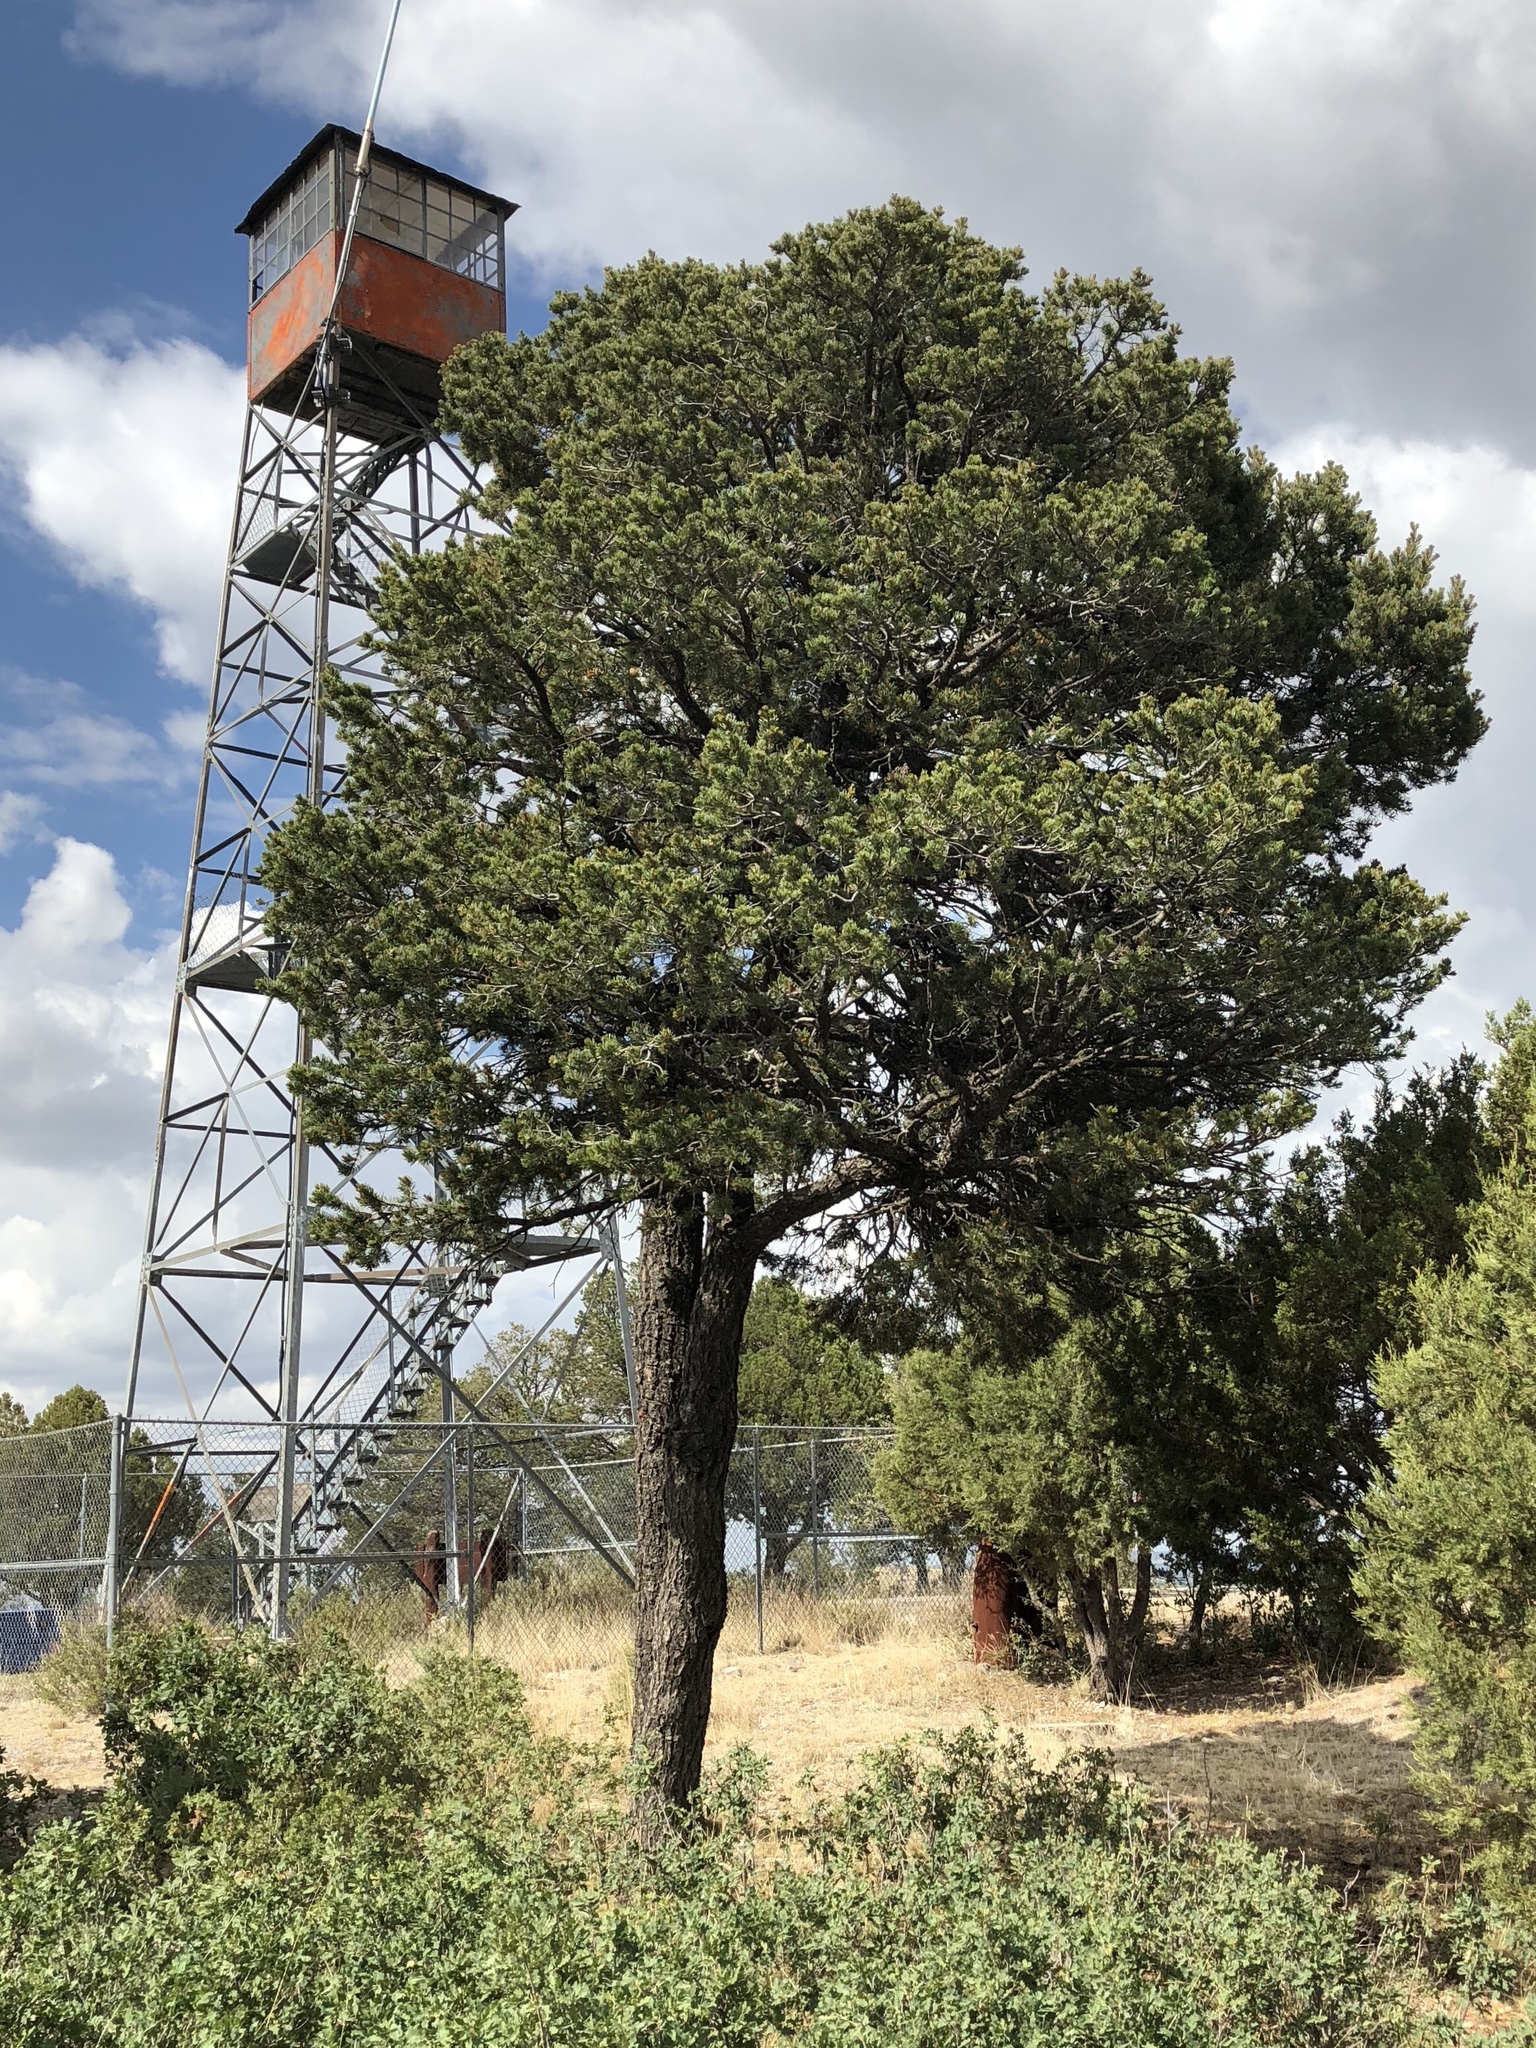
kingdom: Plantae
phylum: Tracheophyta
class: Pinopsida
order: Pinales
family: Pinaceae
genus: Pinus
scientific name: Pinus edulis
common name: Colorado pinyon
